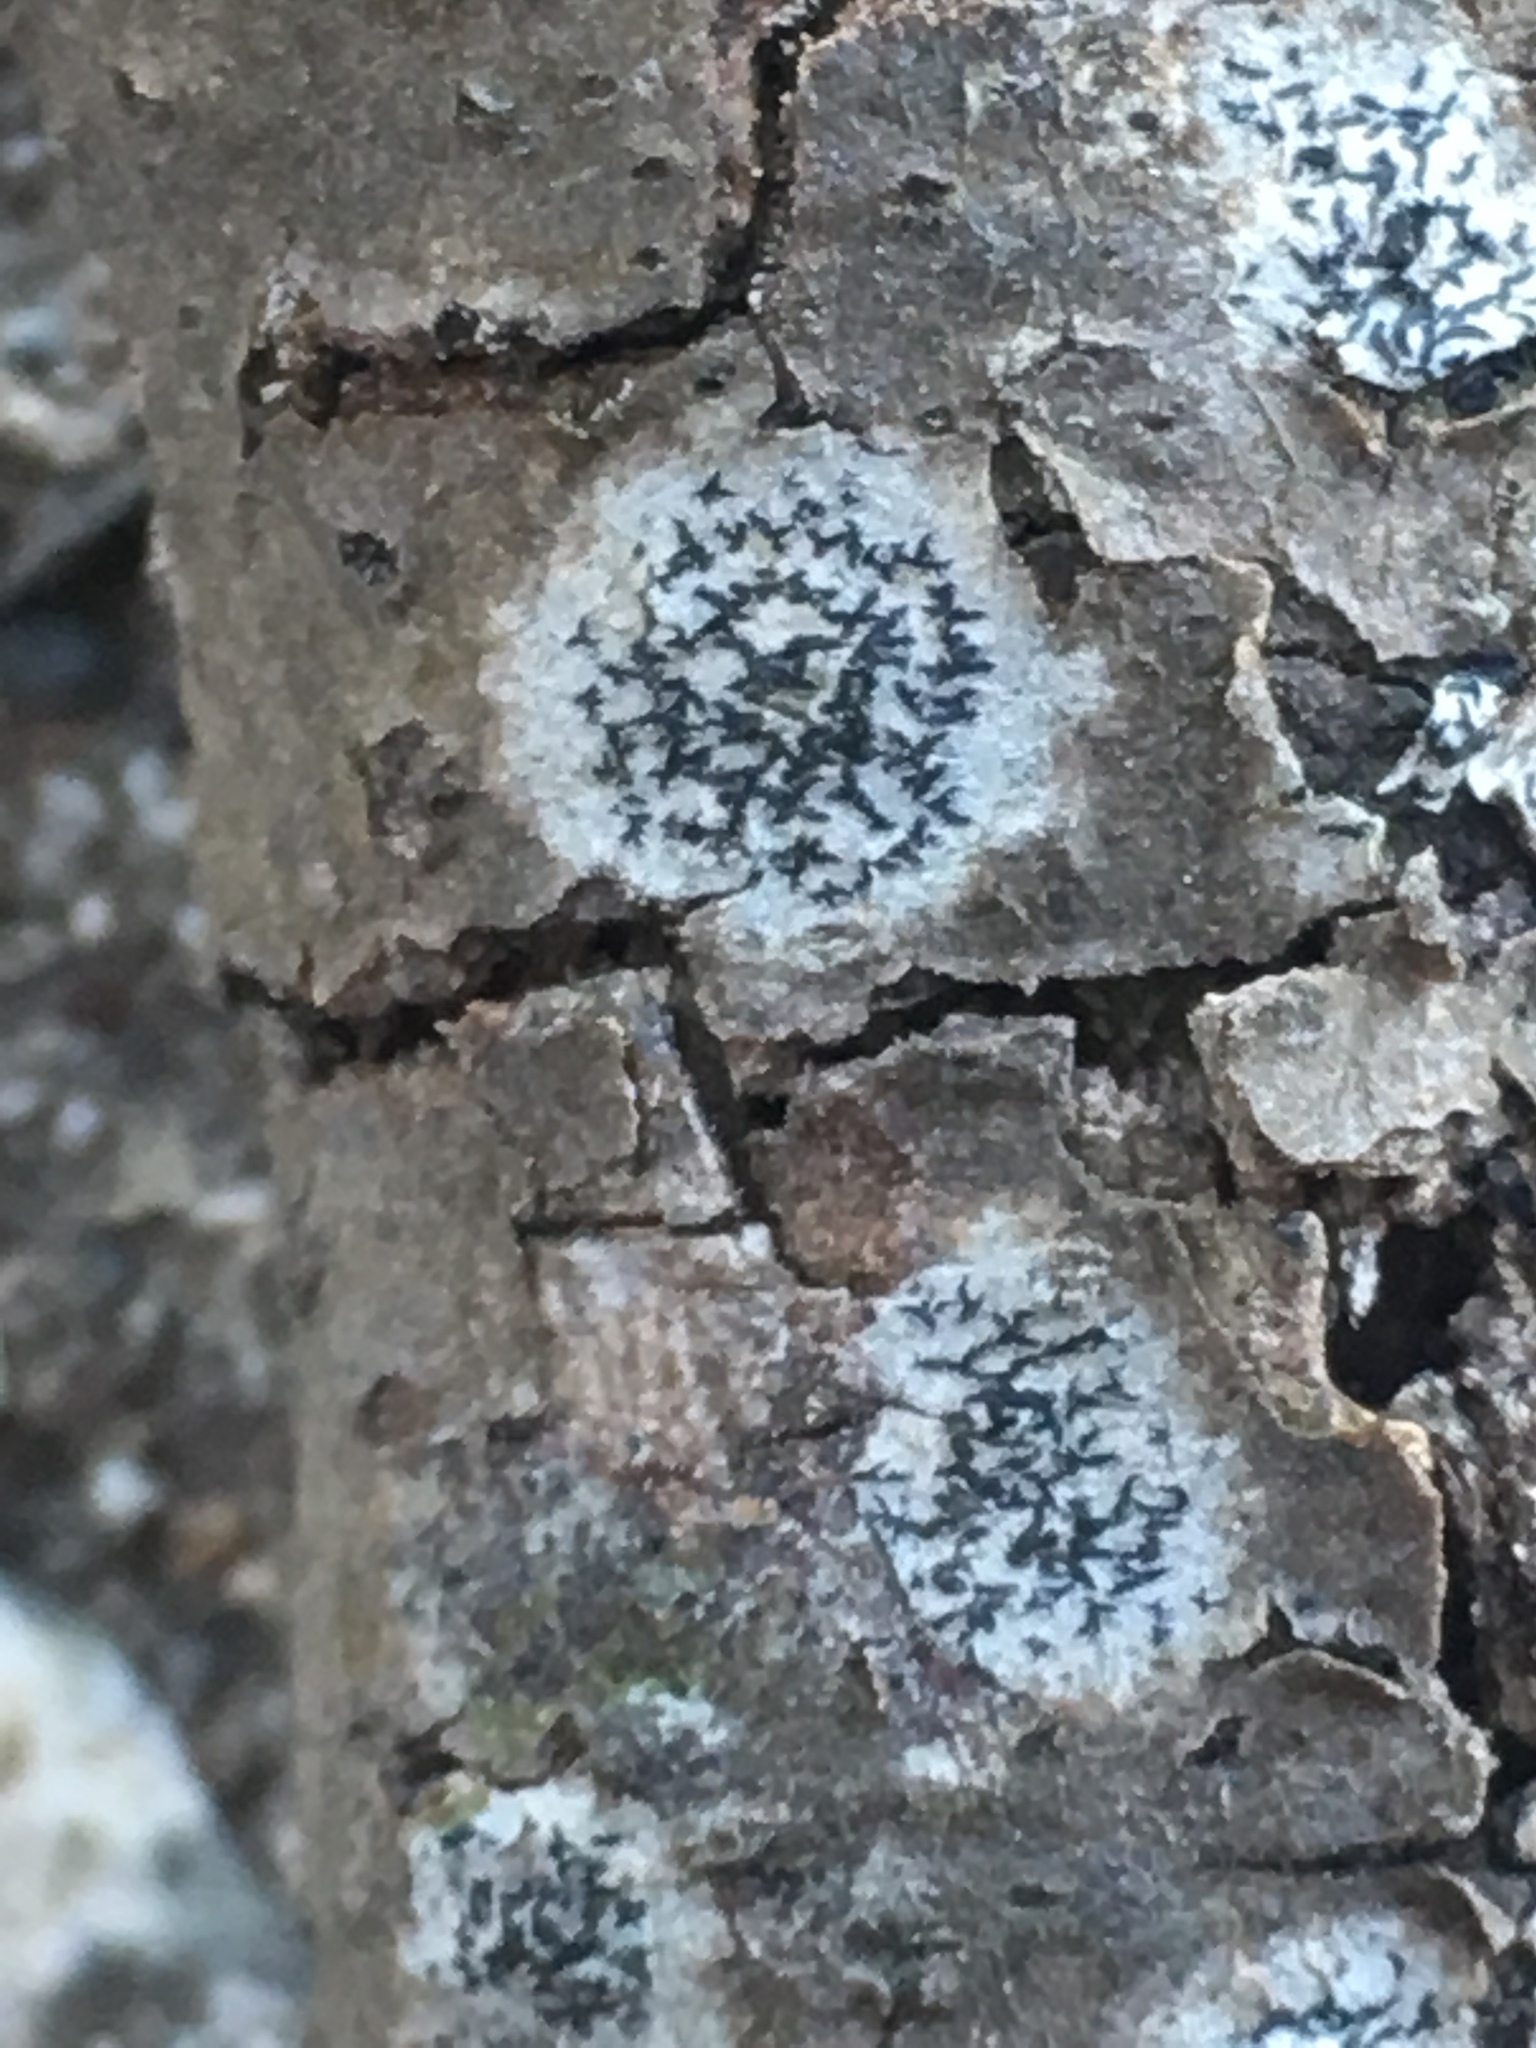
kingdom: Fungi
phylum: Ascomycota
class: Lecanoromycetes
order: Ostropales
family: Graphidaceae
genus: Graphis
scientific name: Graphis scripta
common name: Script lichen
